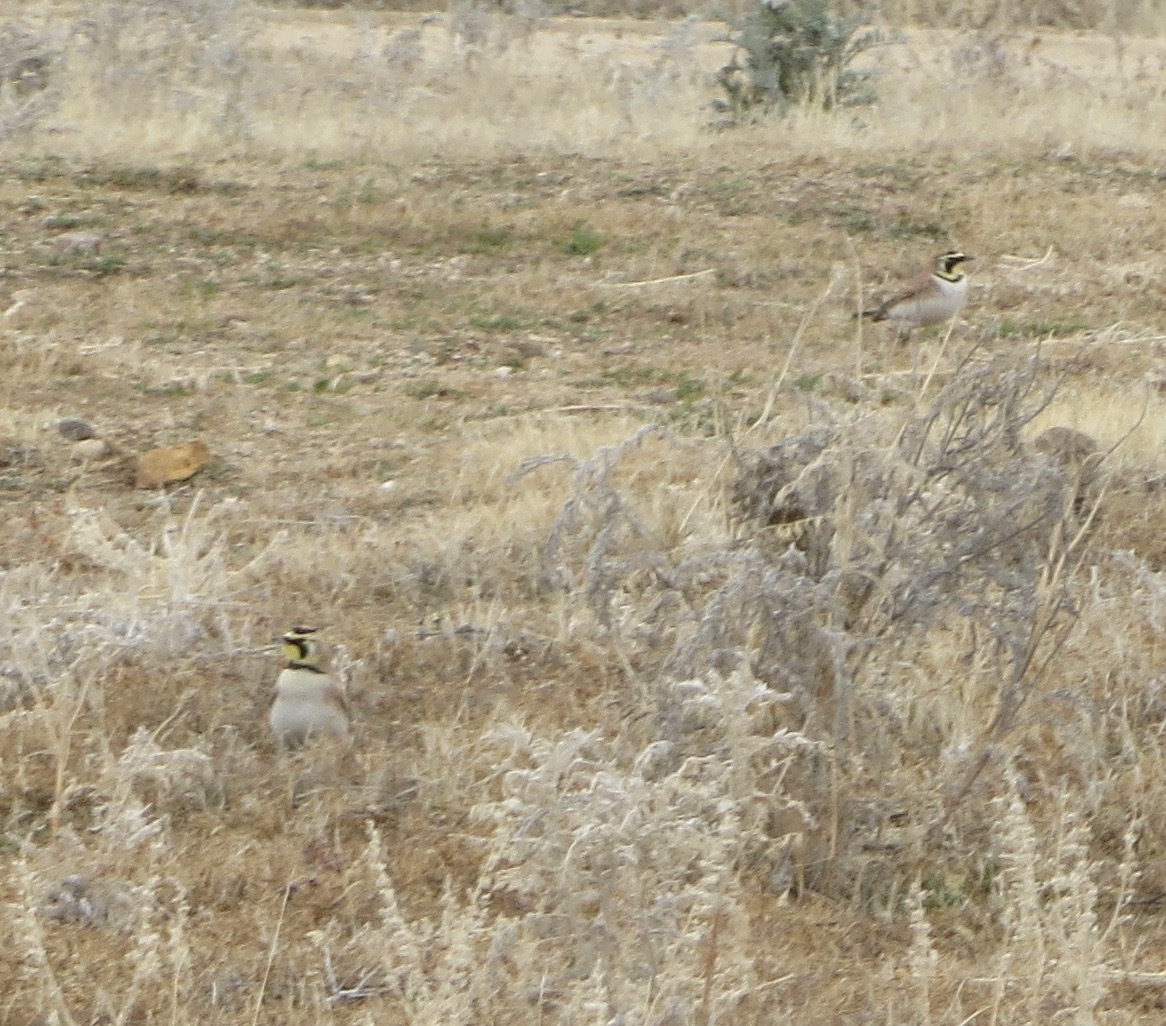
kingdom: Animalia
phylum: Chordata
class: Aves
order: Passeriformes
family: Alaudidae
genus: Eremophila
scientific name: Eremophila alpestris
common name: Horned lark
